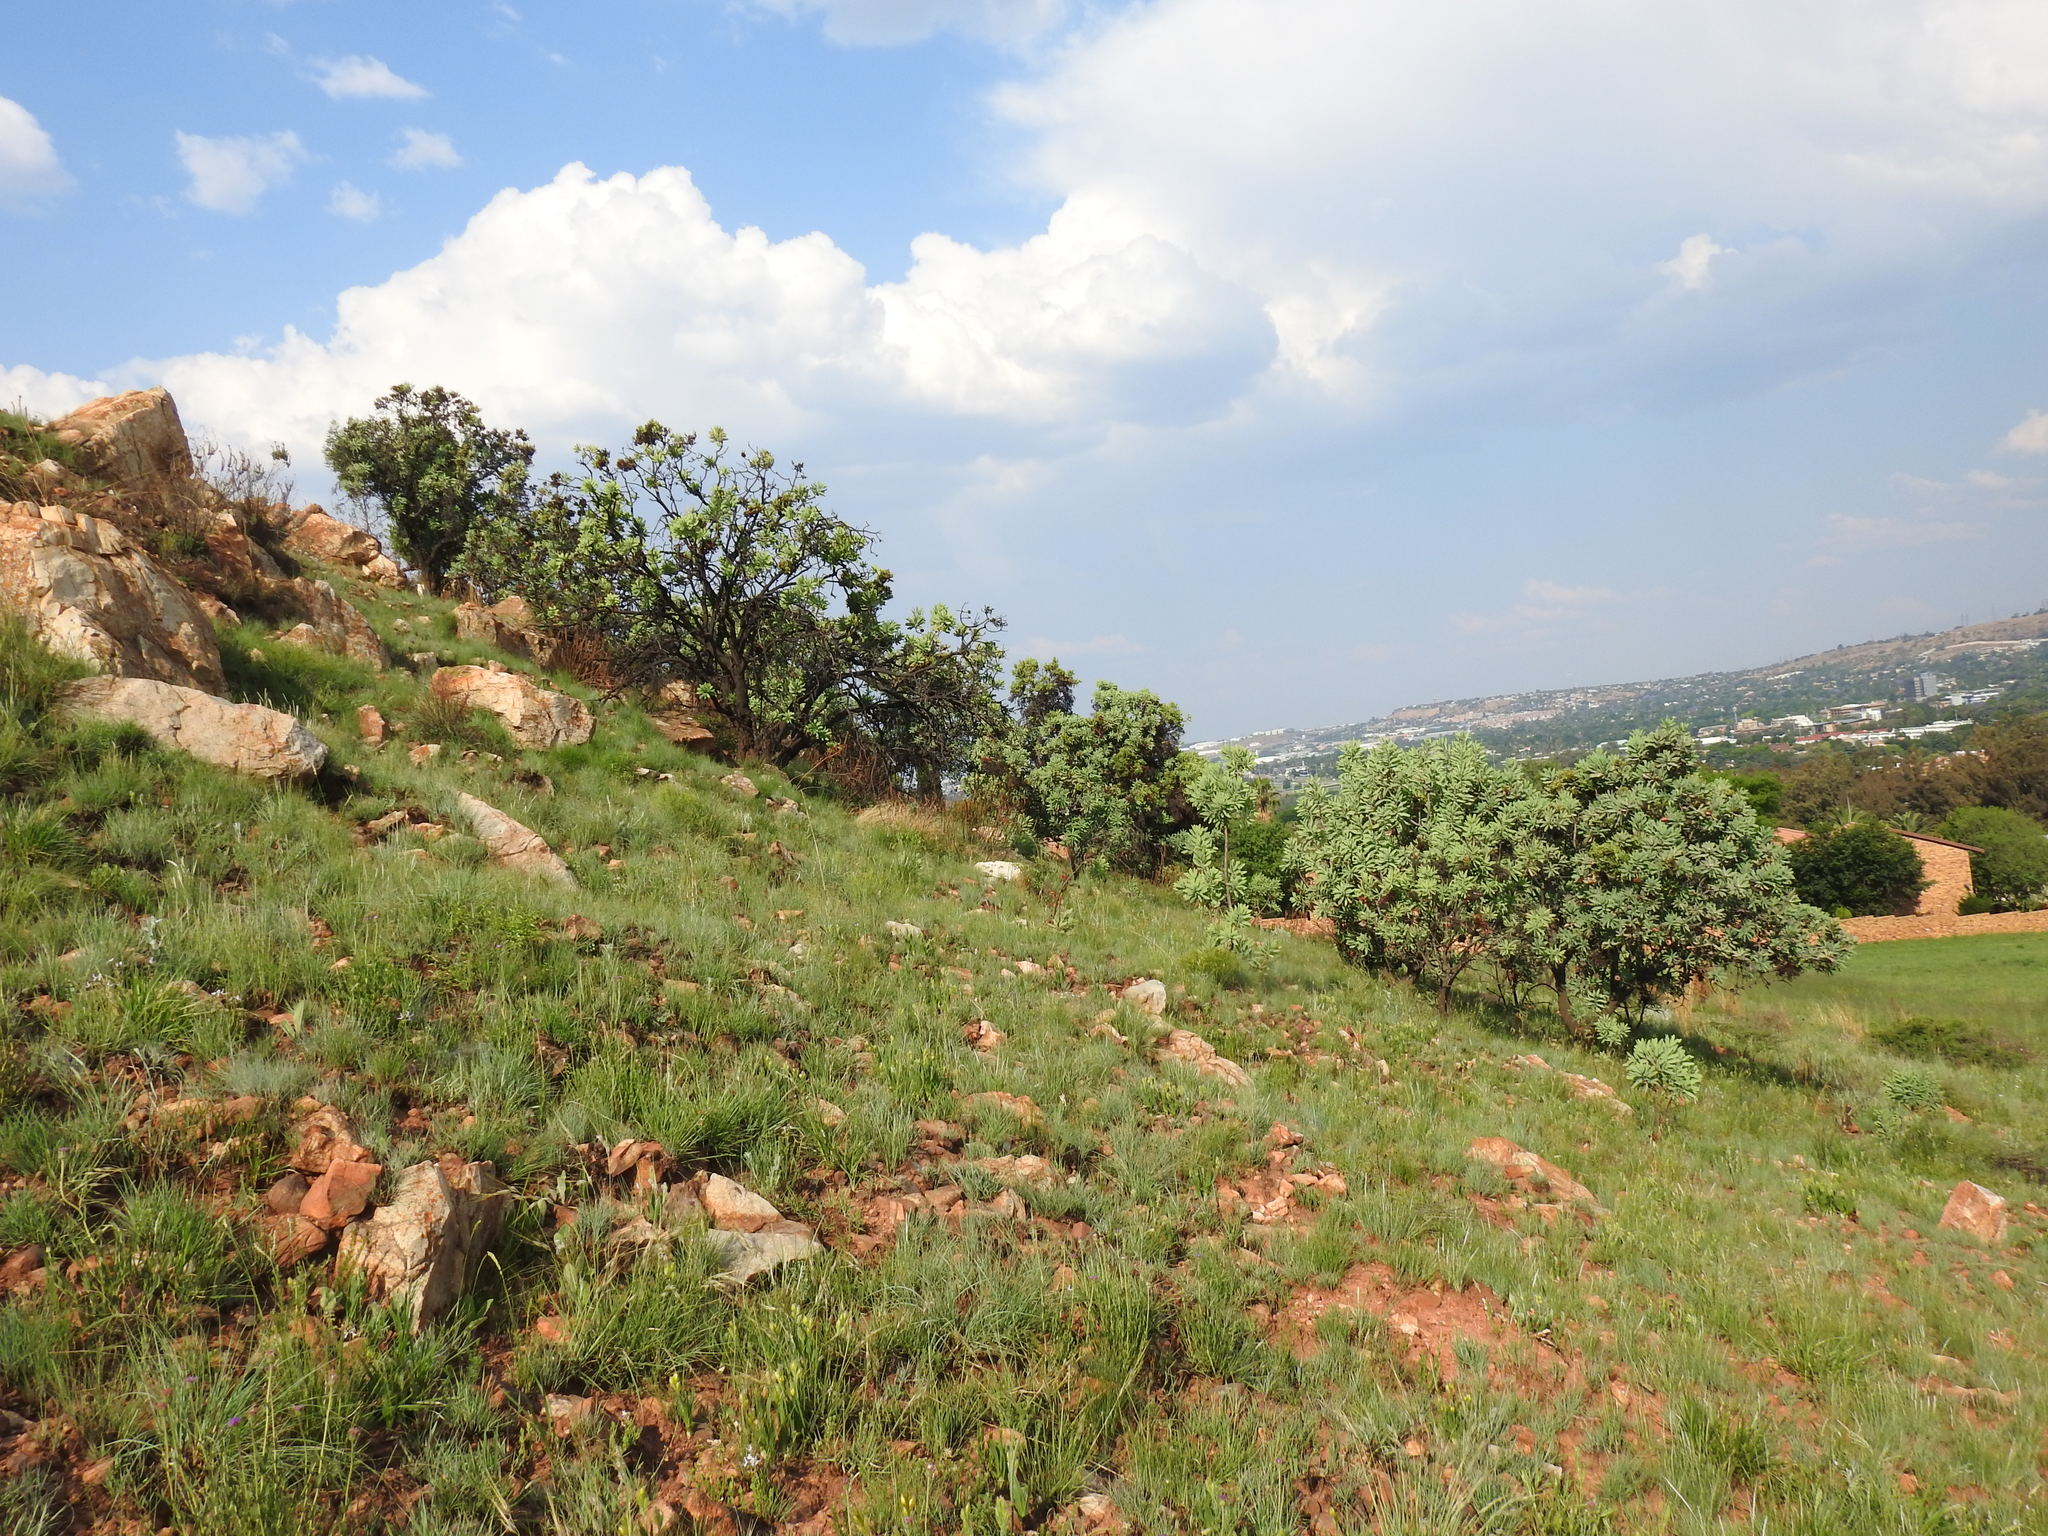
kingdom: Plantae
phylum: Tracheophyta
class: Magnoliopsida
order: Proteales
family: Proteaceae
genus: Protea
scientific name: Protea caffra
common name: Common sugarbush
